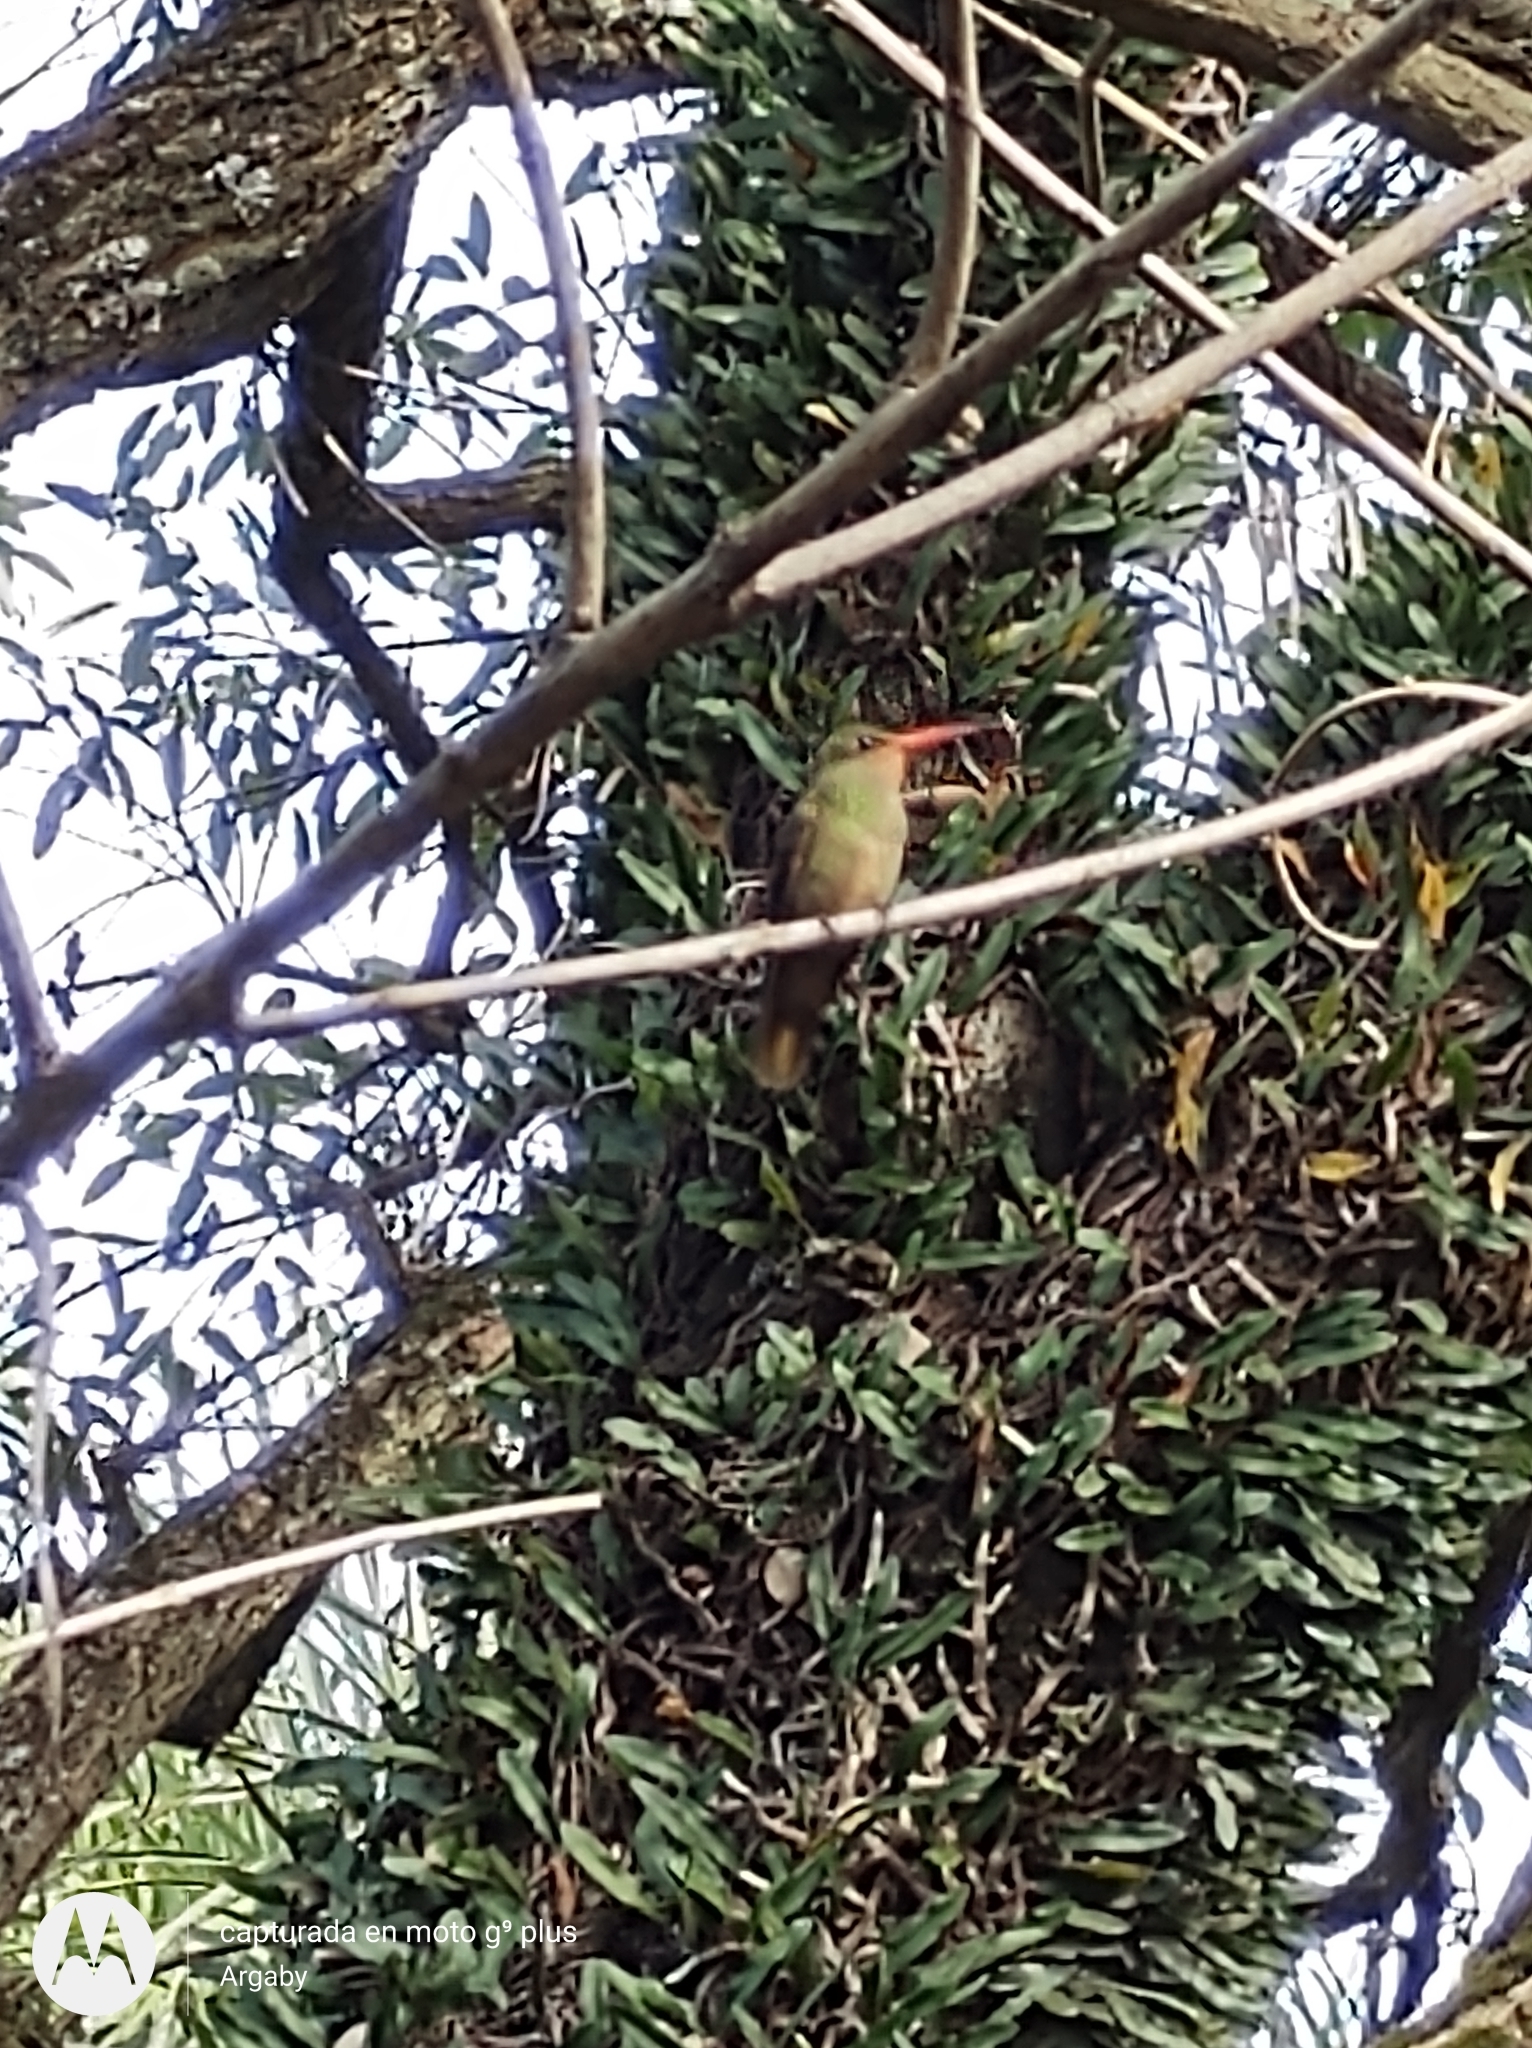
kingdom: Animalia
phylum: Chordata
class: Aves
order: Apodiformes
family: Trochilidae
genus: Hylocharis
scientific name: Hylocharis chrysura
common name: Gilded sapphire
